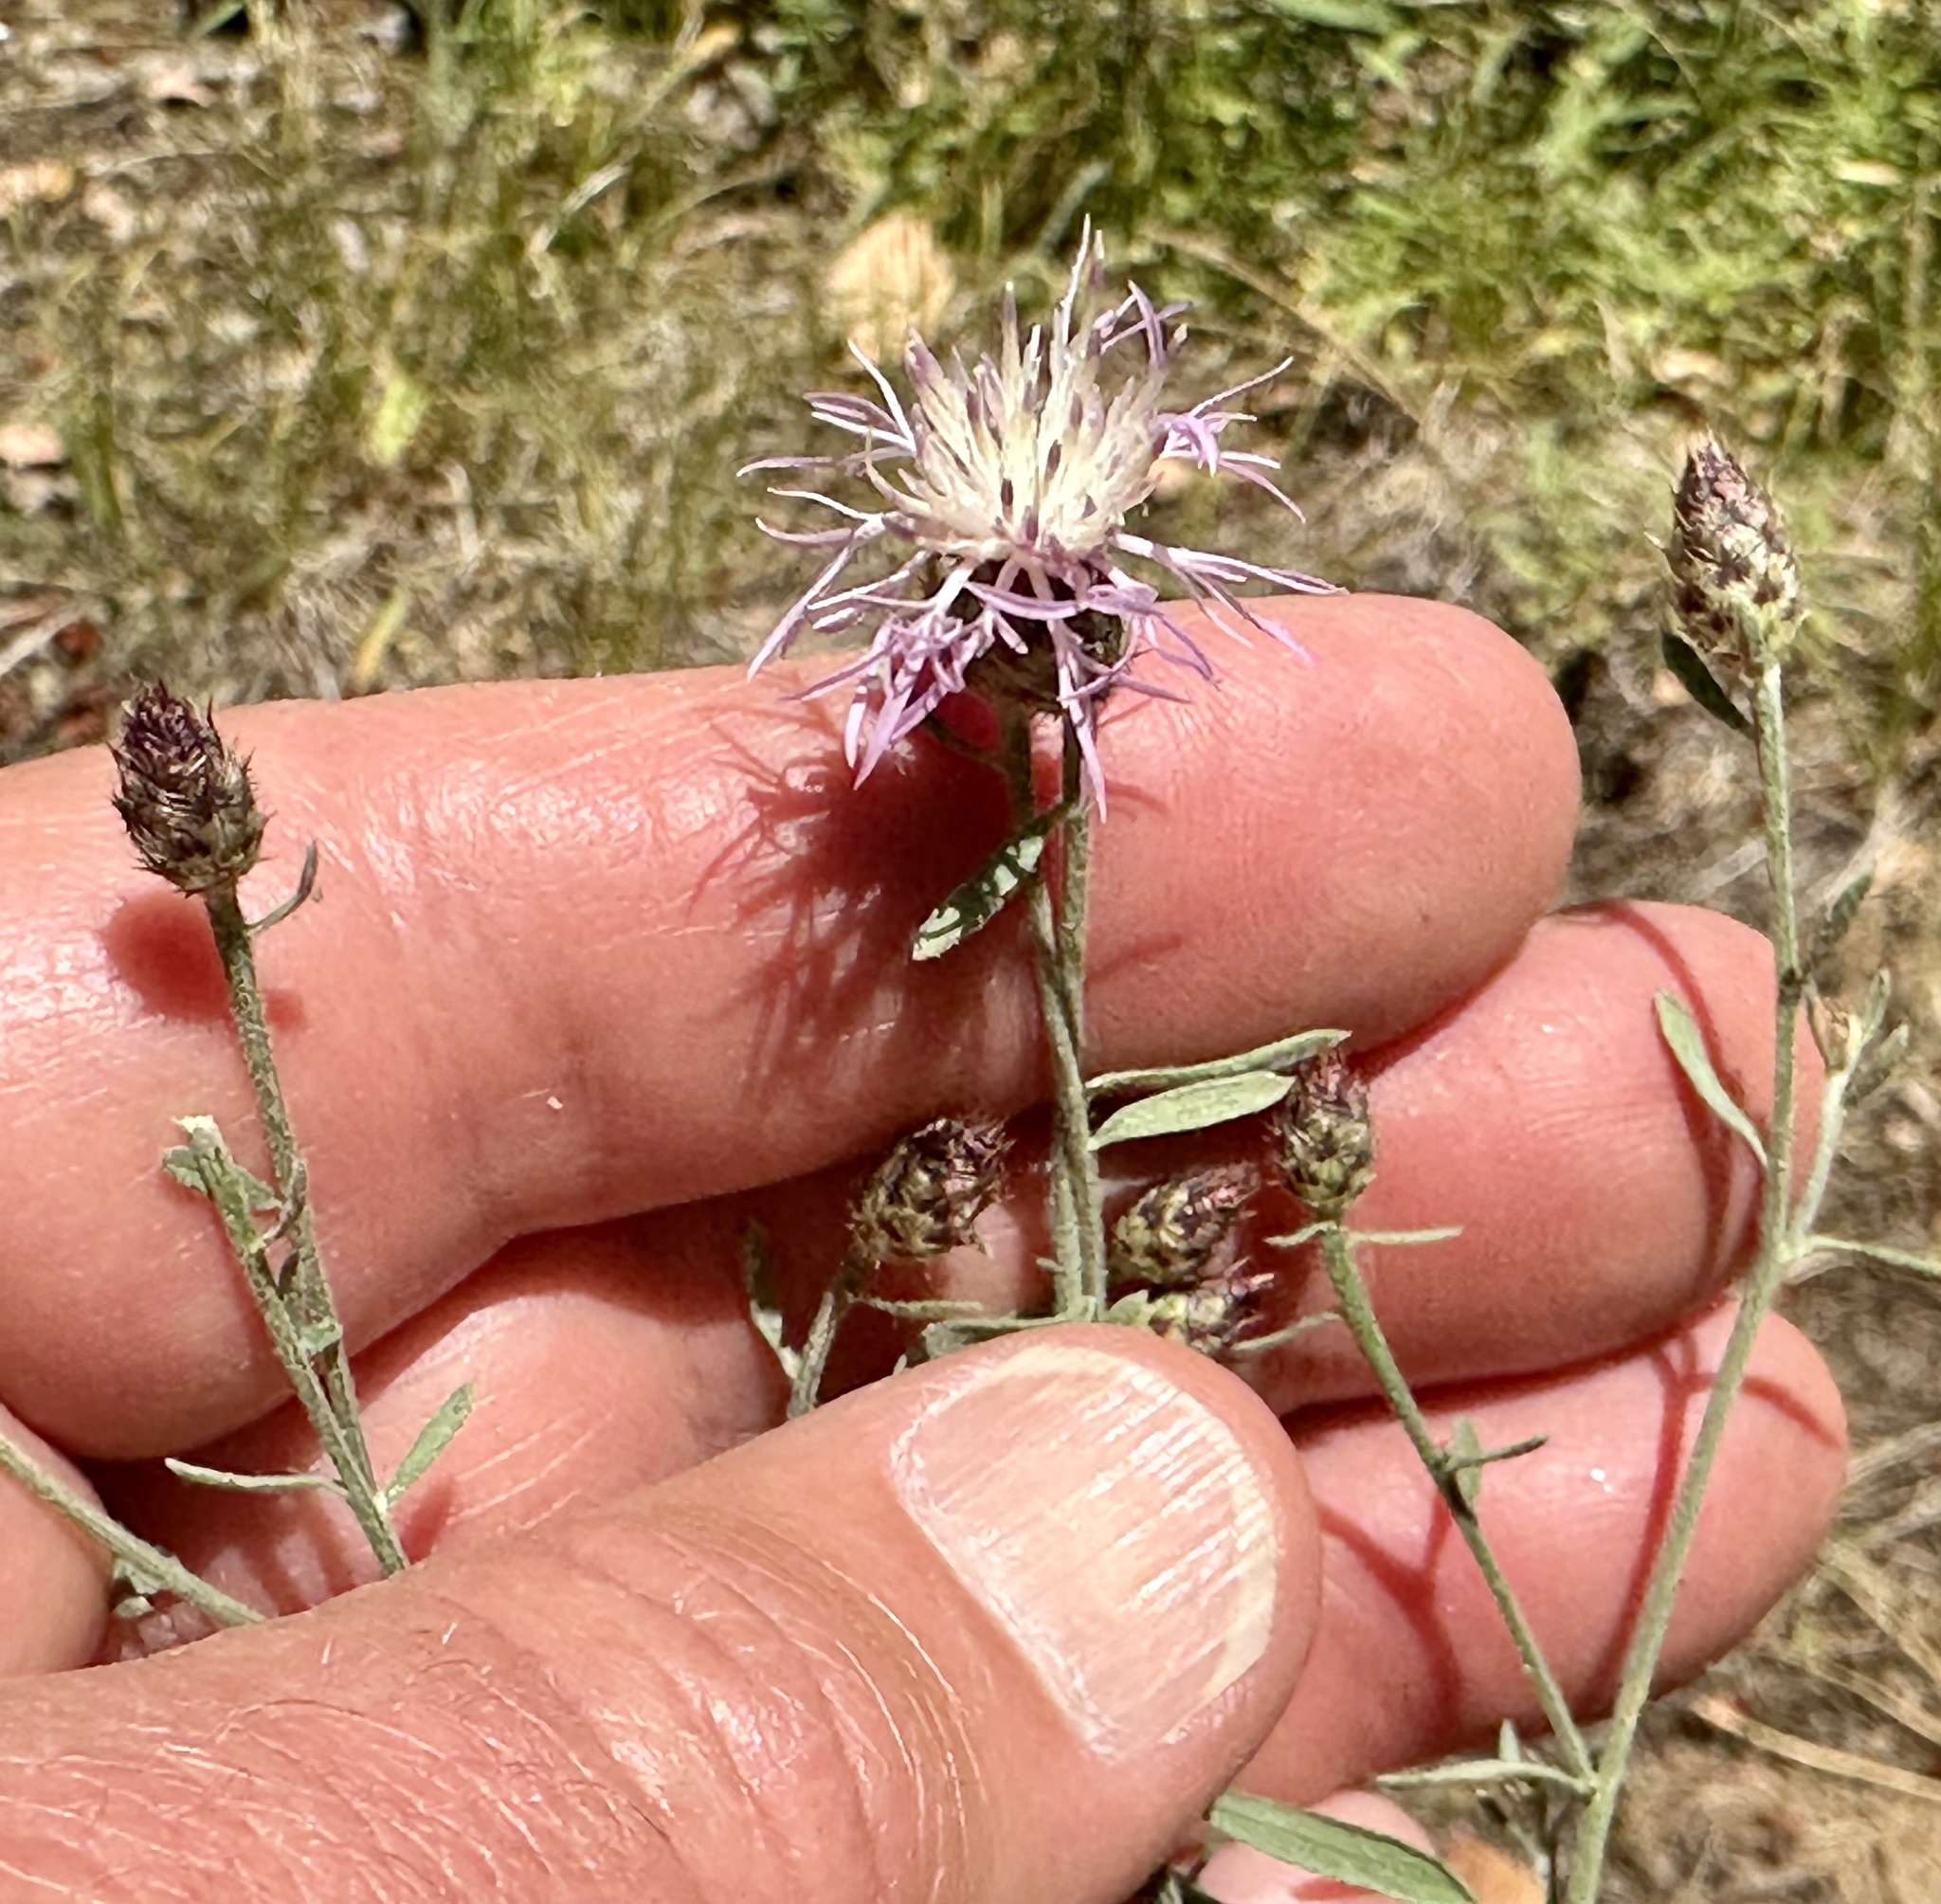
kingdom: Plantae
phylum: Tracheophyta
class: Magnoliopsida
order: Asterales
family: Asteraceae
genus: Centaurea
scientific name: Centaurea stoebe
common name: Spotted knapweed
